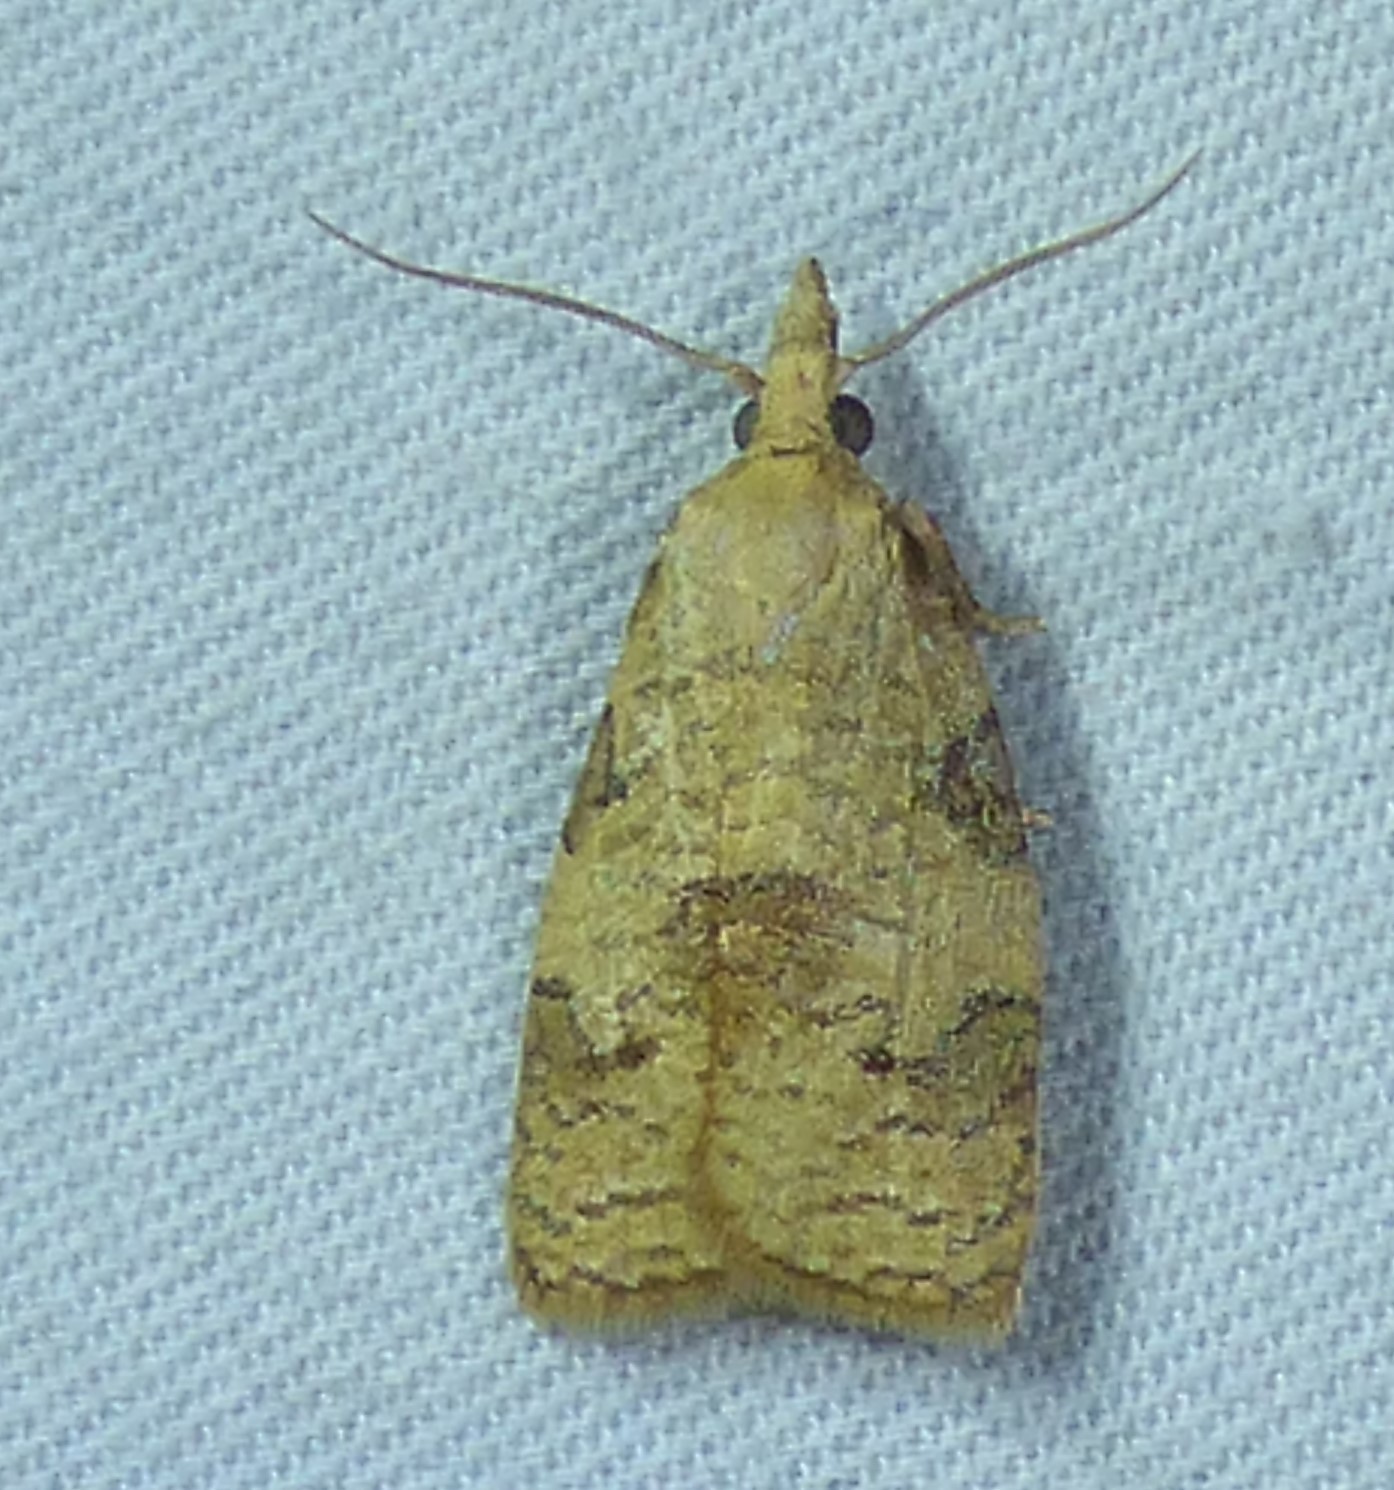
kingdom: Animalia
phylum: Arthropoda
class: Insecta
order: Lepidoptera
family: Tortricidae
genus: Cenopis
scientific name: Cenopis saracana
